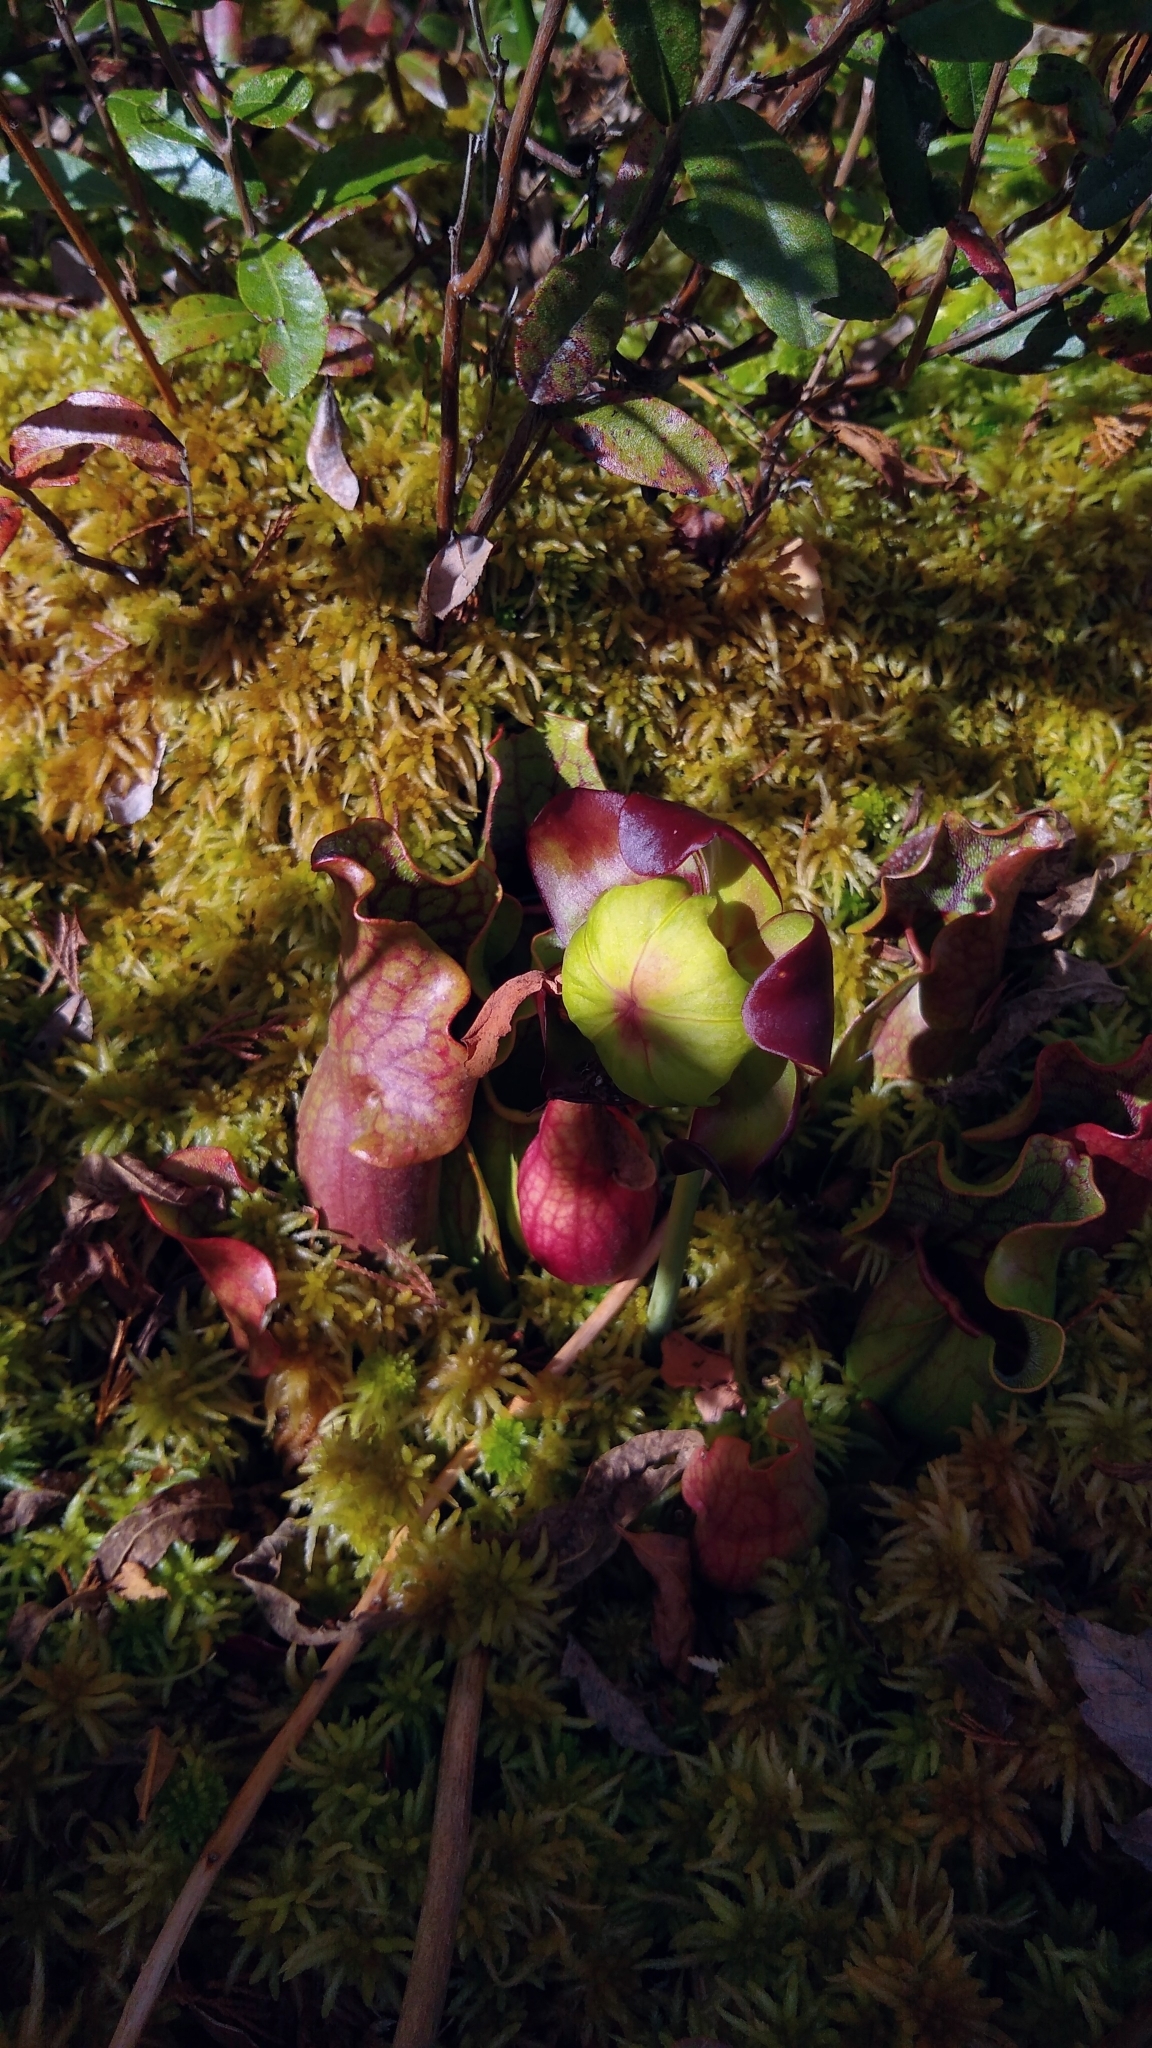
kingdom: Plantae
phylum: Tracheophyta
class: Magnoliopsida
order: Ericales
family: Sarraceniaceae
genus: Sarracenia
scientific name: Sarracenia purpurea
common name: Pitcherplant
